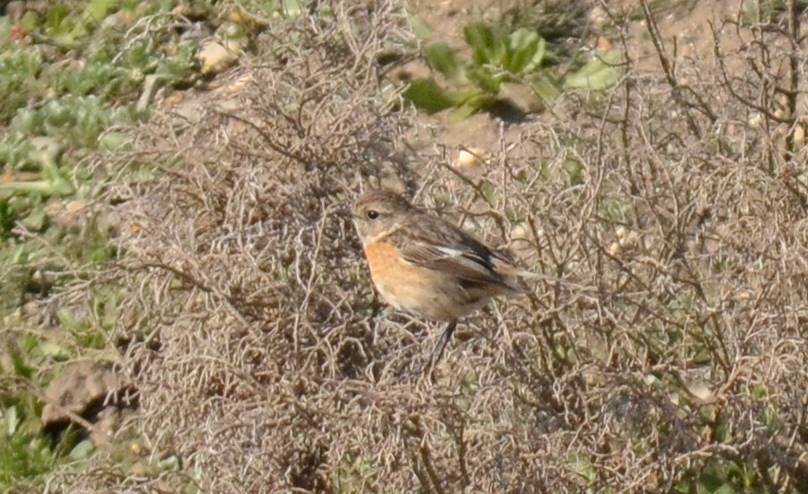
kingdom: Animalia
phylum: Chordata
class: Aves
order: Passeriformes
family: Muscicapidae
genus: Saxicola
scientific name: Saxicola rubicola
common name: European stonechat
